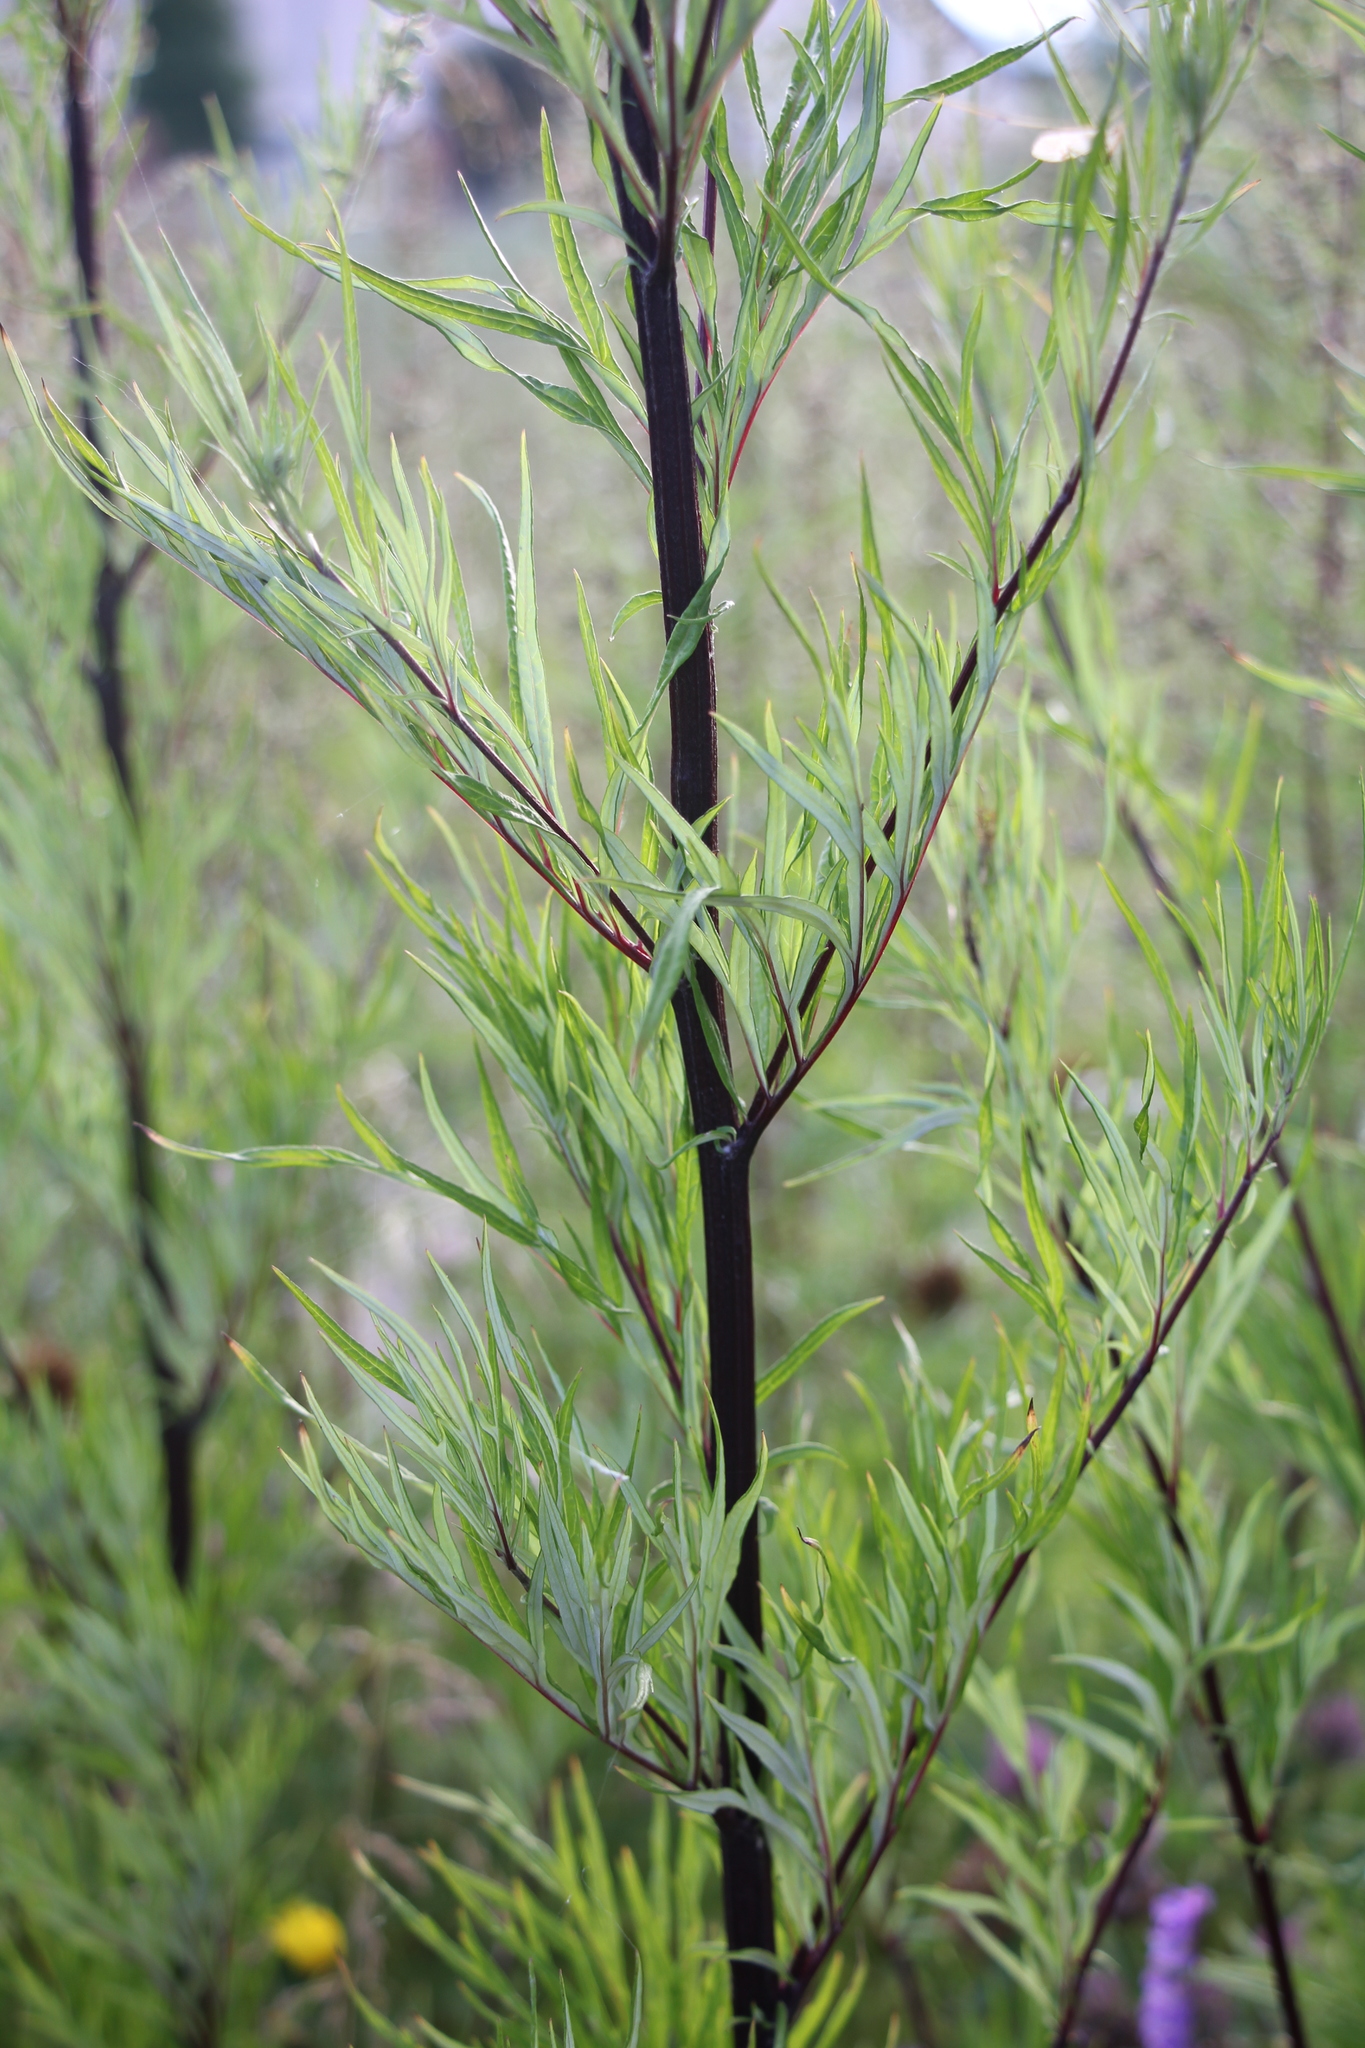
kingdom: Plantae
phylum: Tracheophyta
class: Magnoliopsida
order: Asterales
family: Asteraceae
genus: Artemisia
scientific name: Artemisia vulgaris
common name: Mugwort
